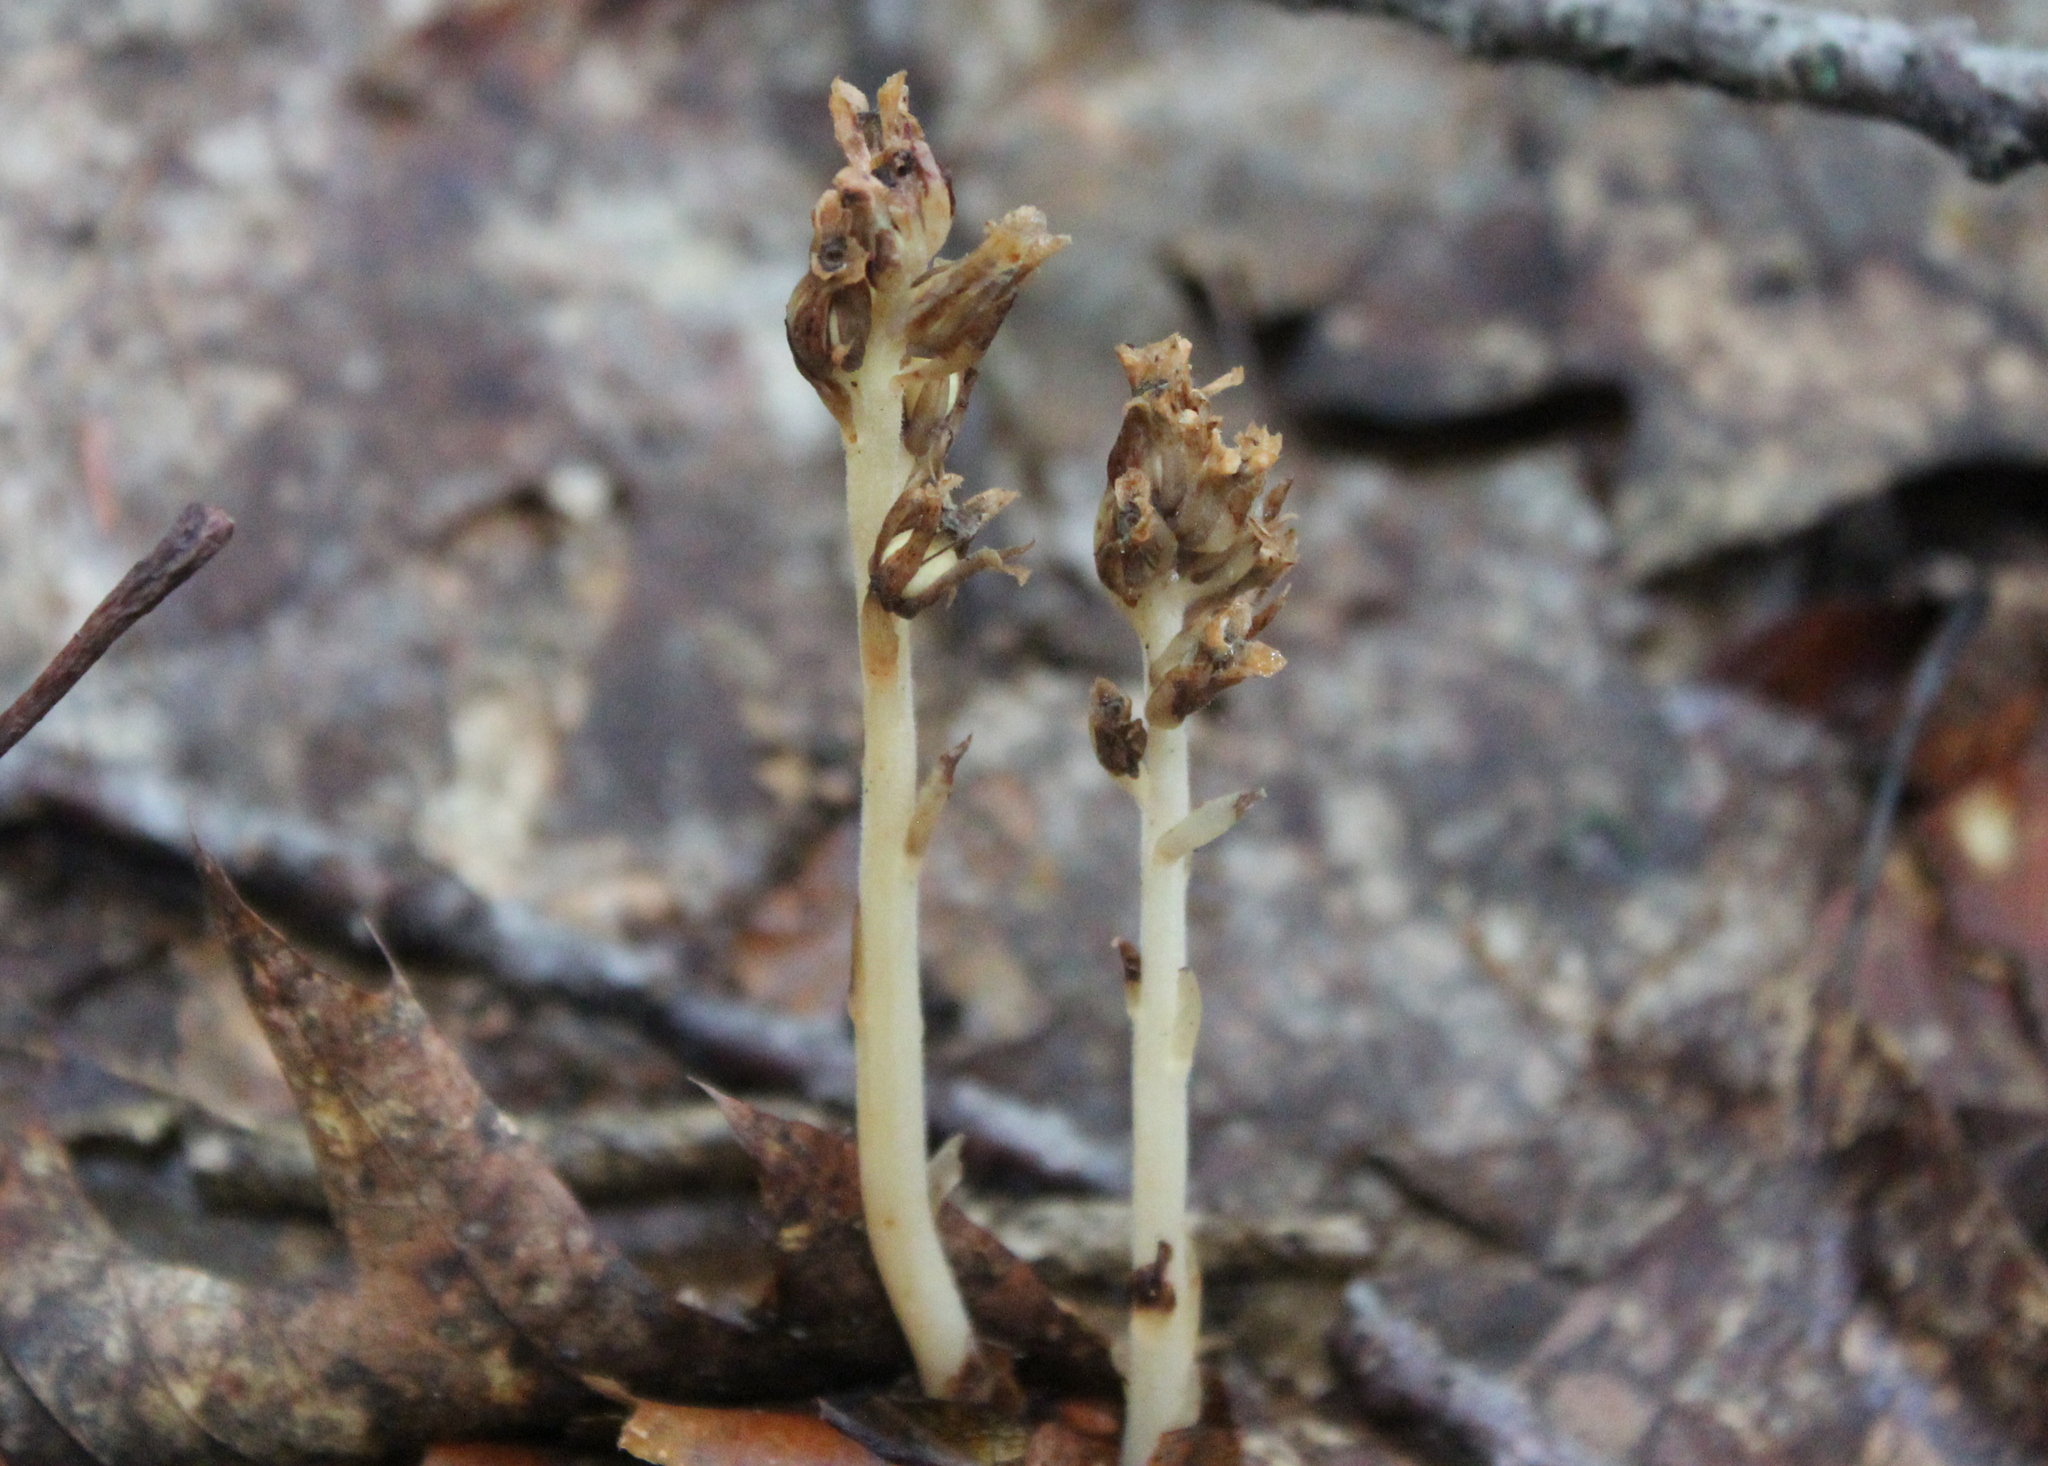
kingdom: Plantae
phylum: Tracheophyta
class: Magnoliopsida
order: Ericales
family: Ericaceae
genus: Hypopitys
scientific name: Hypopitys monotropa
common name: Yellow bird's-nest
